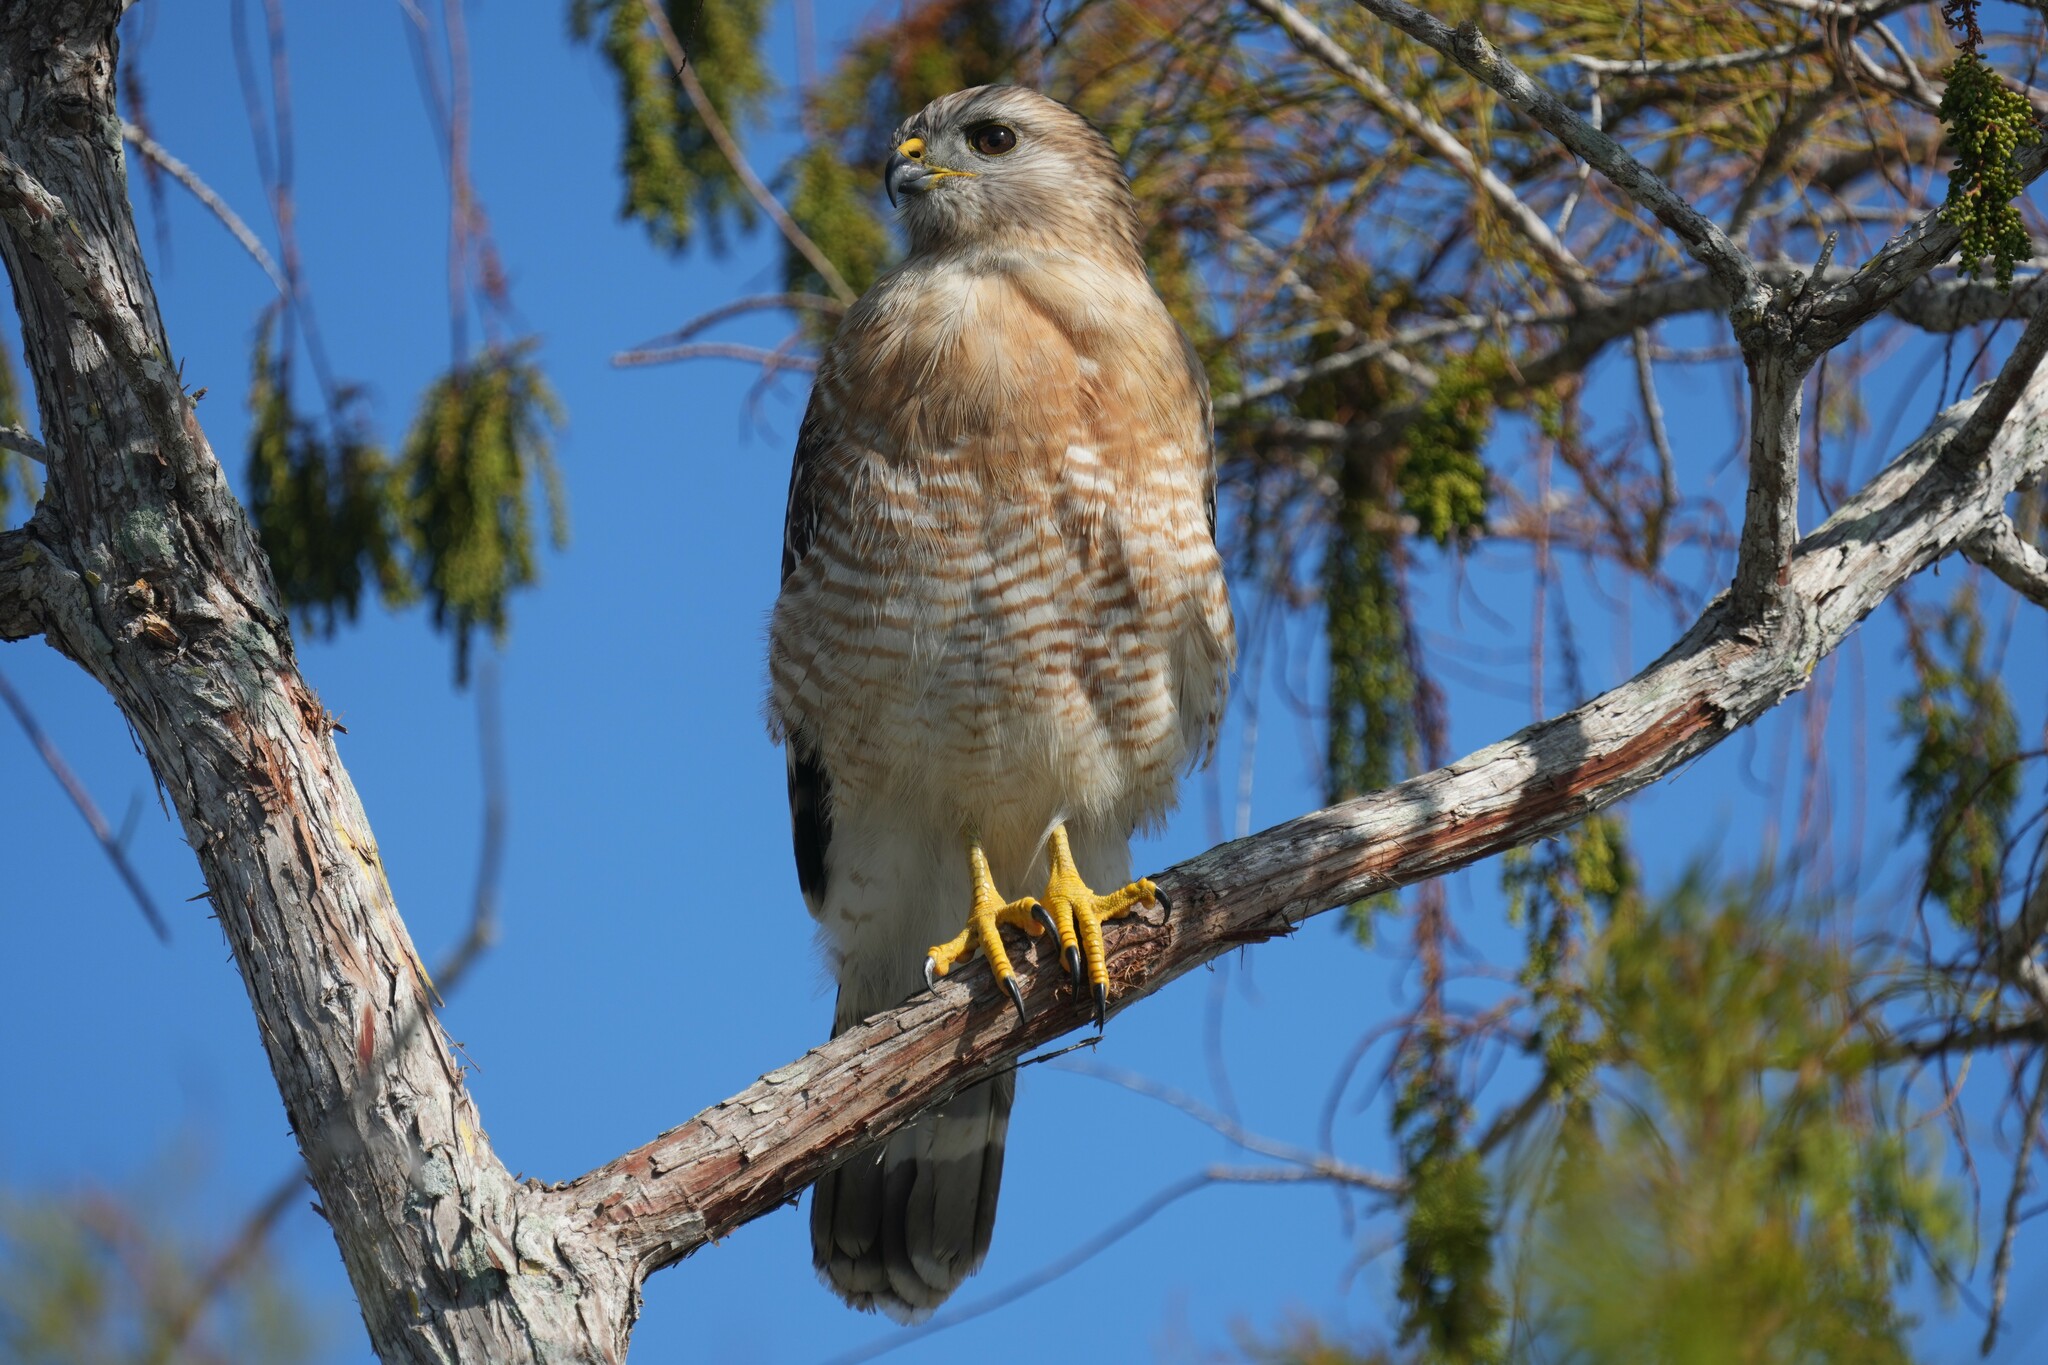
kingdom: Animalia
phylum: Chordata
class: Aves
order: Accipitriformes
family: Accipitridae
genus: Buteo
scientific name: Buteo lineatus
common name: Red-shouldered hawk
